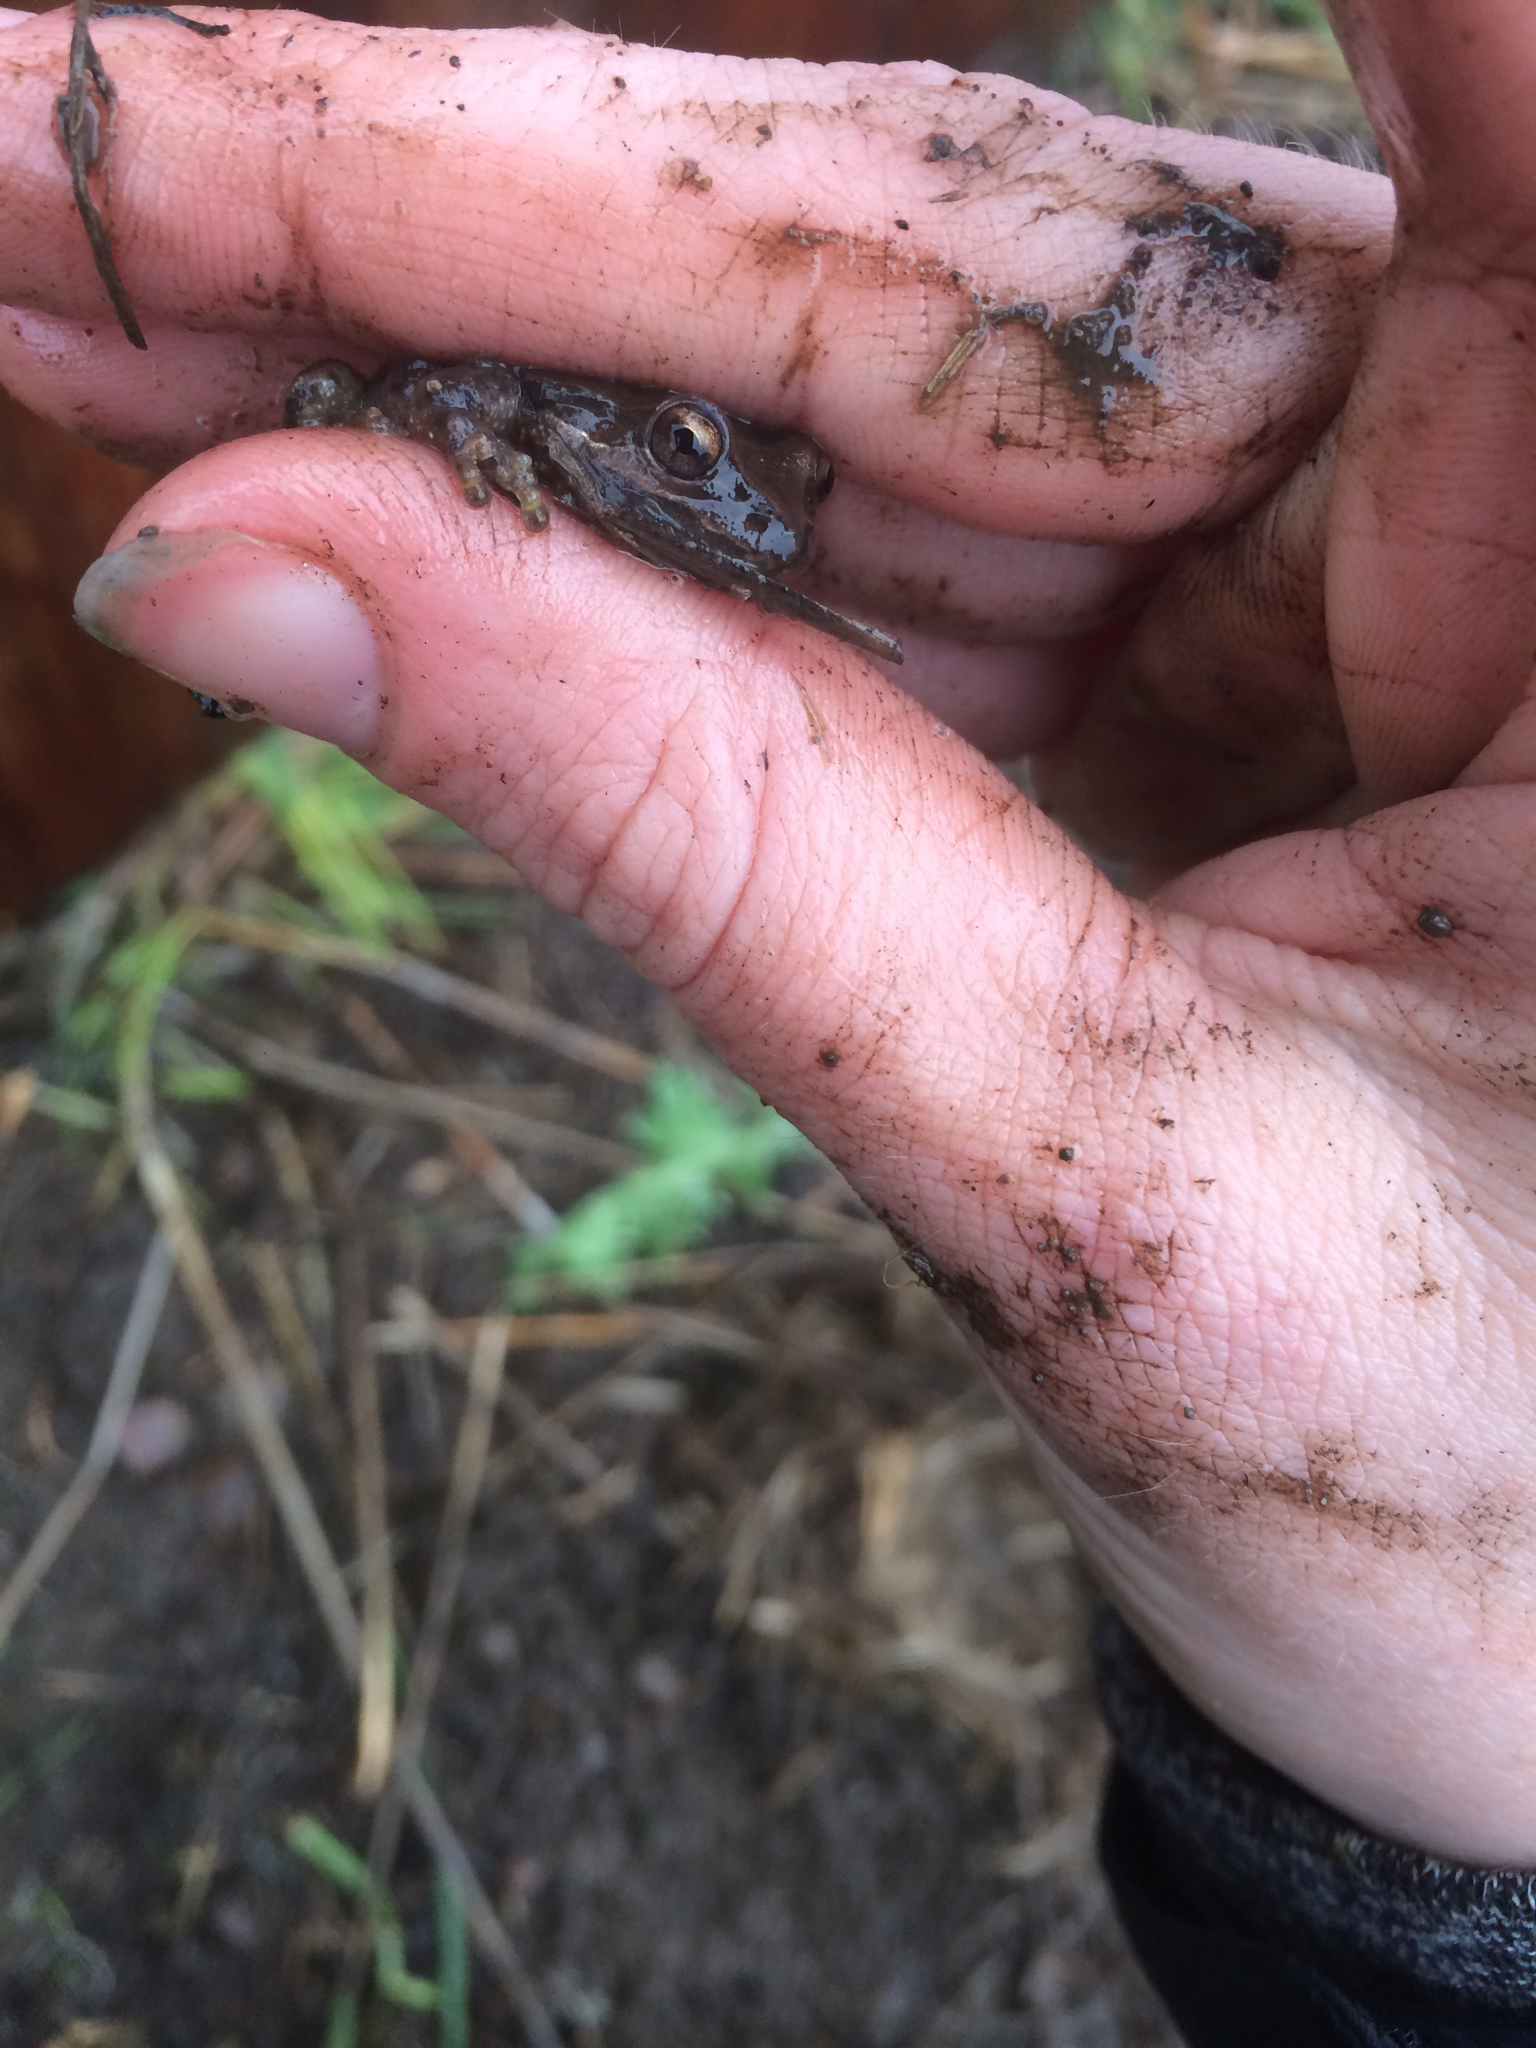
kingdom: Animalia
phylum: Chordata
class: Amphibia
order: Anura
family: Hylidae
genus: Pseudacris
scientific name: Pseudacris regilla
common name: Pacific chorus frog
